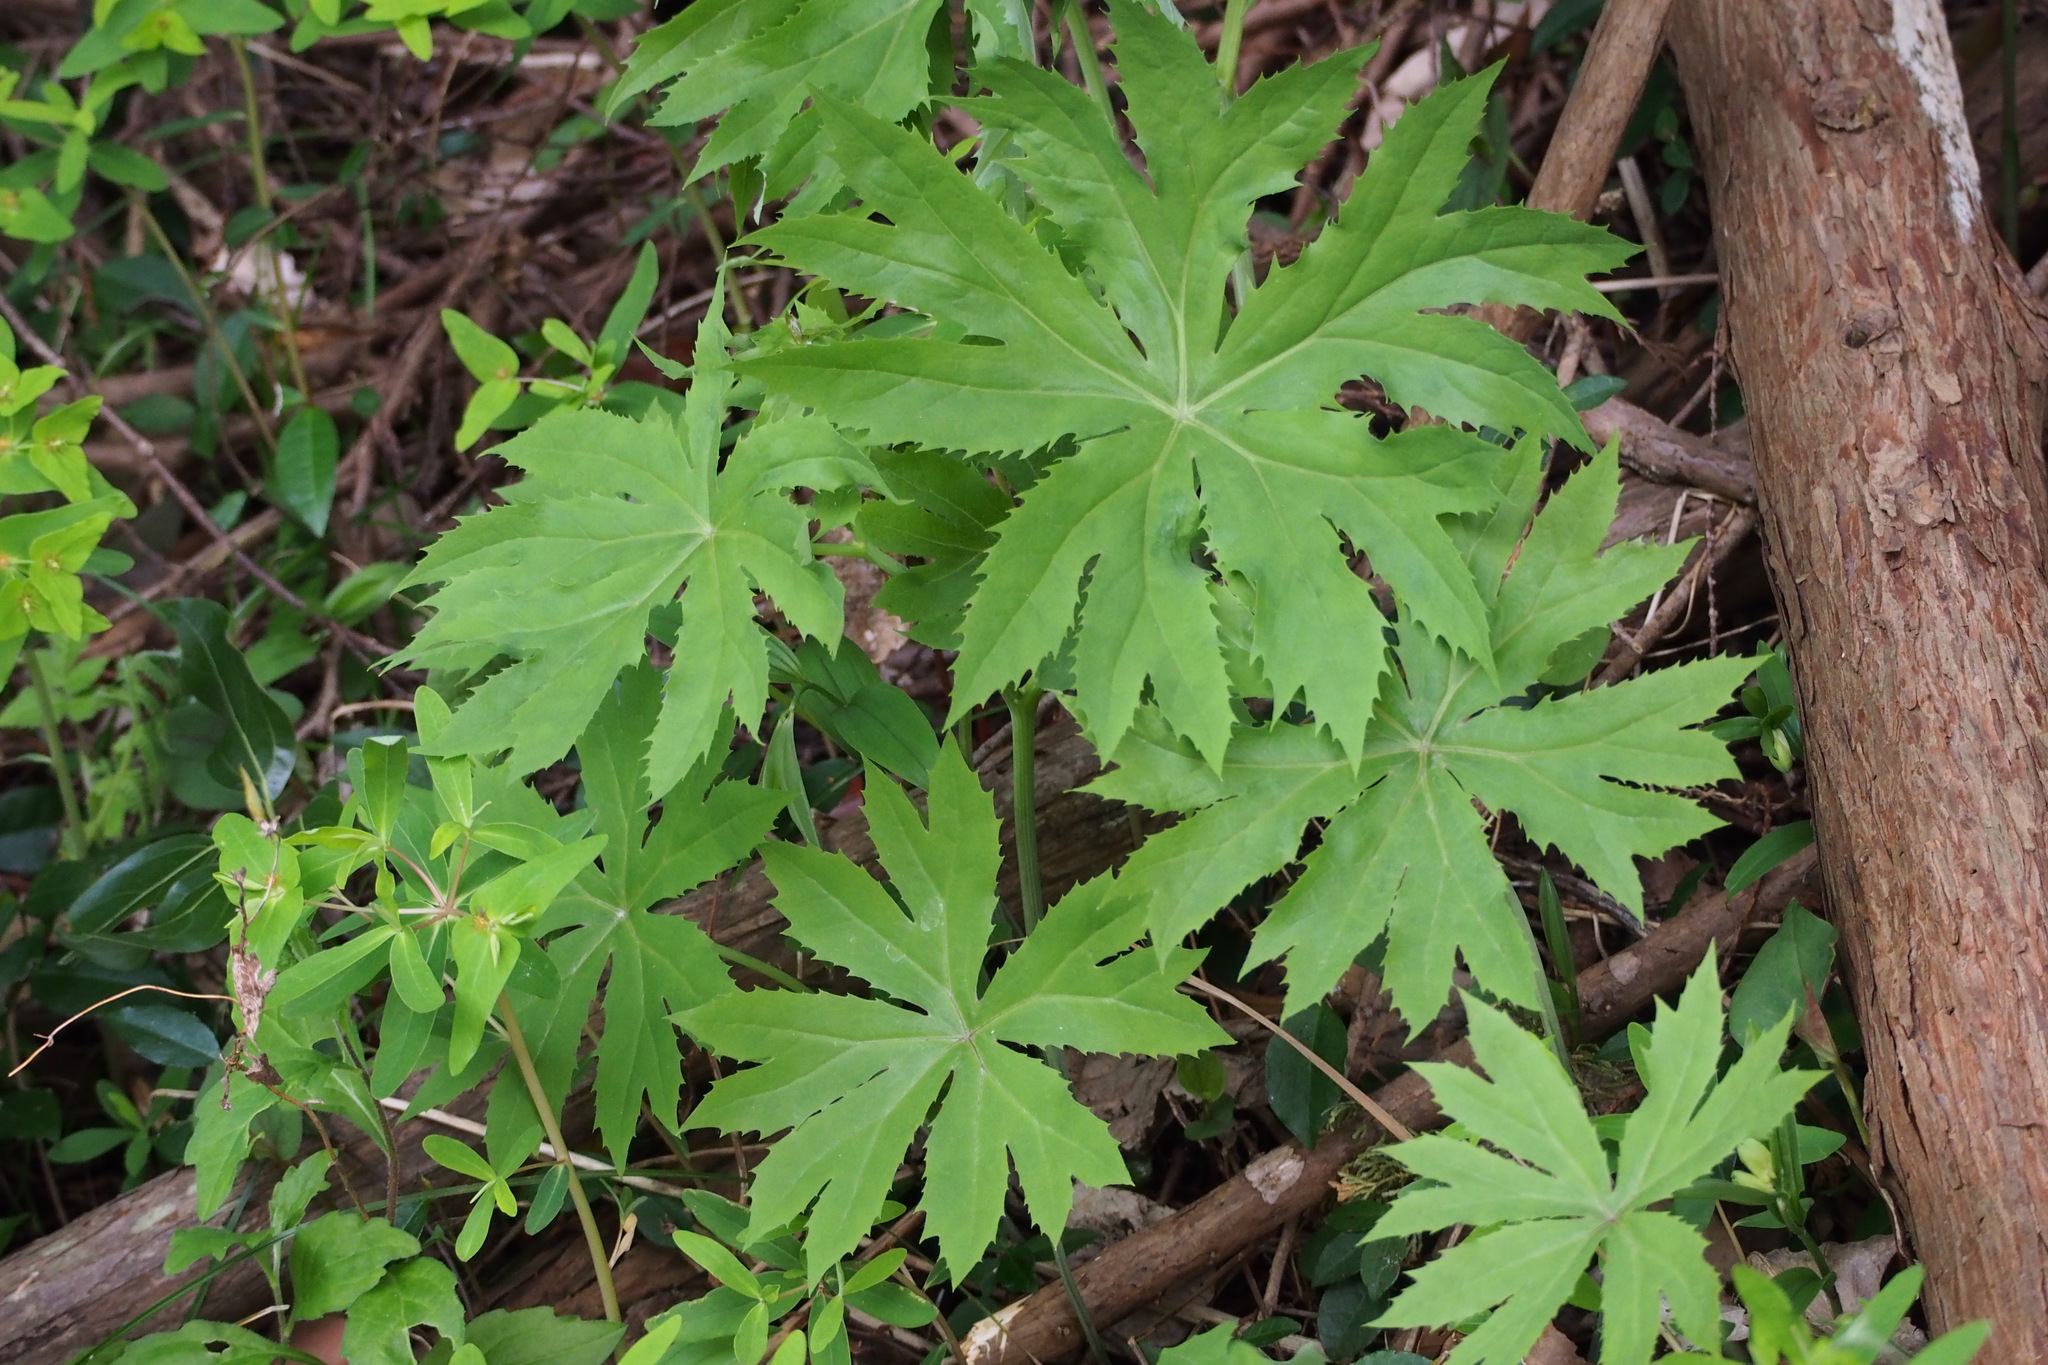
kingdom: Plantae
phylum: Tracheophyta
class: Magnoliopsida
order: Asterales
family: Asteraceae
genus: Syneilesis
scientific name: Syneilesis palmata
